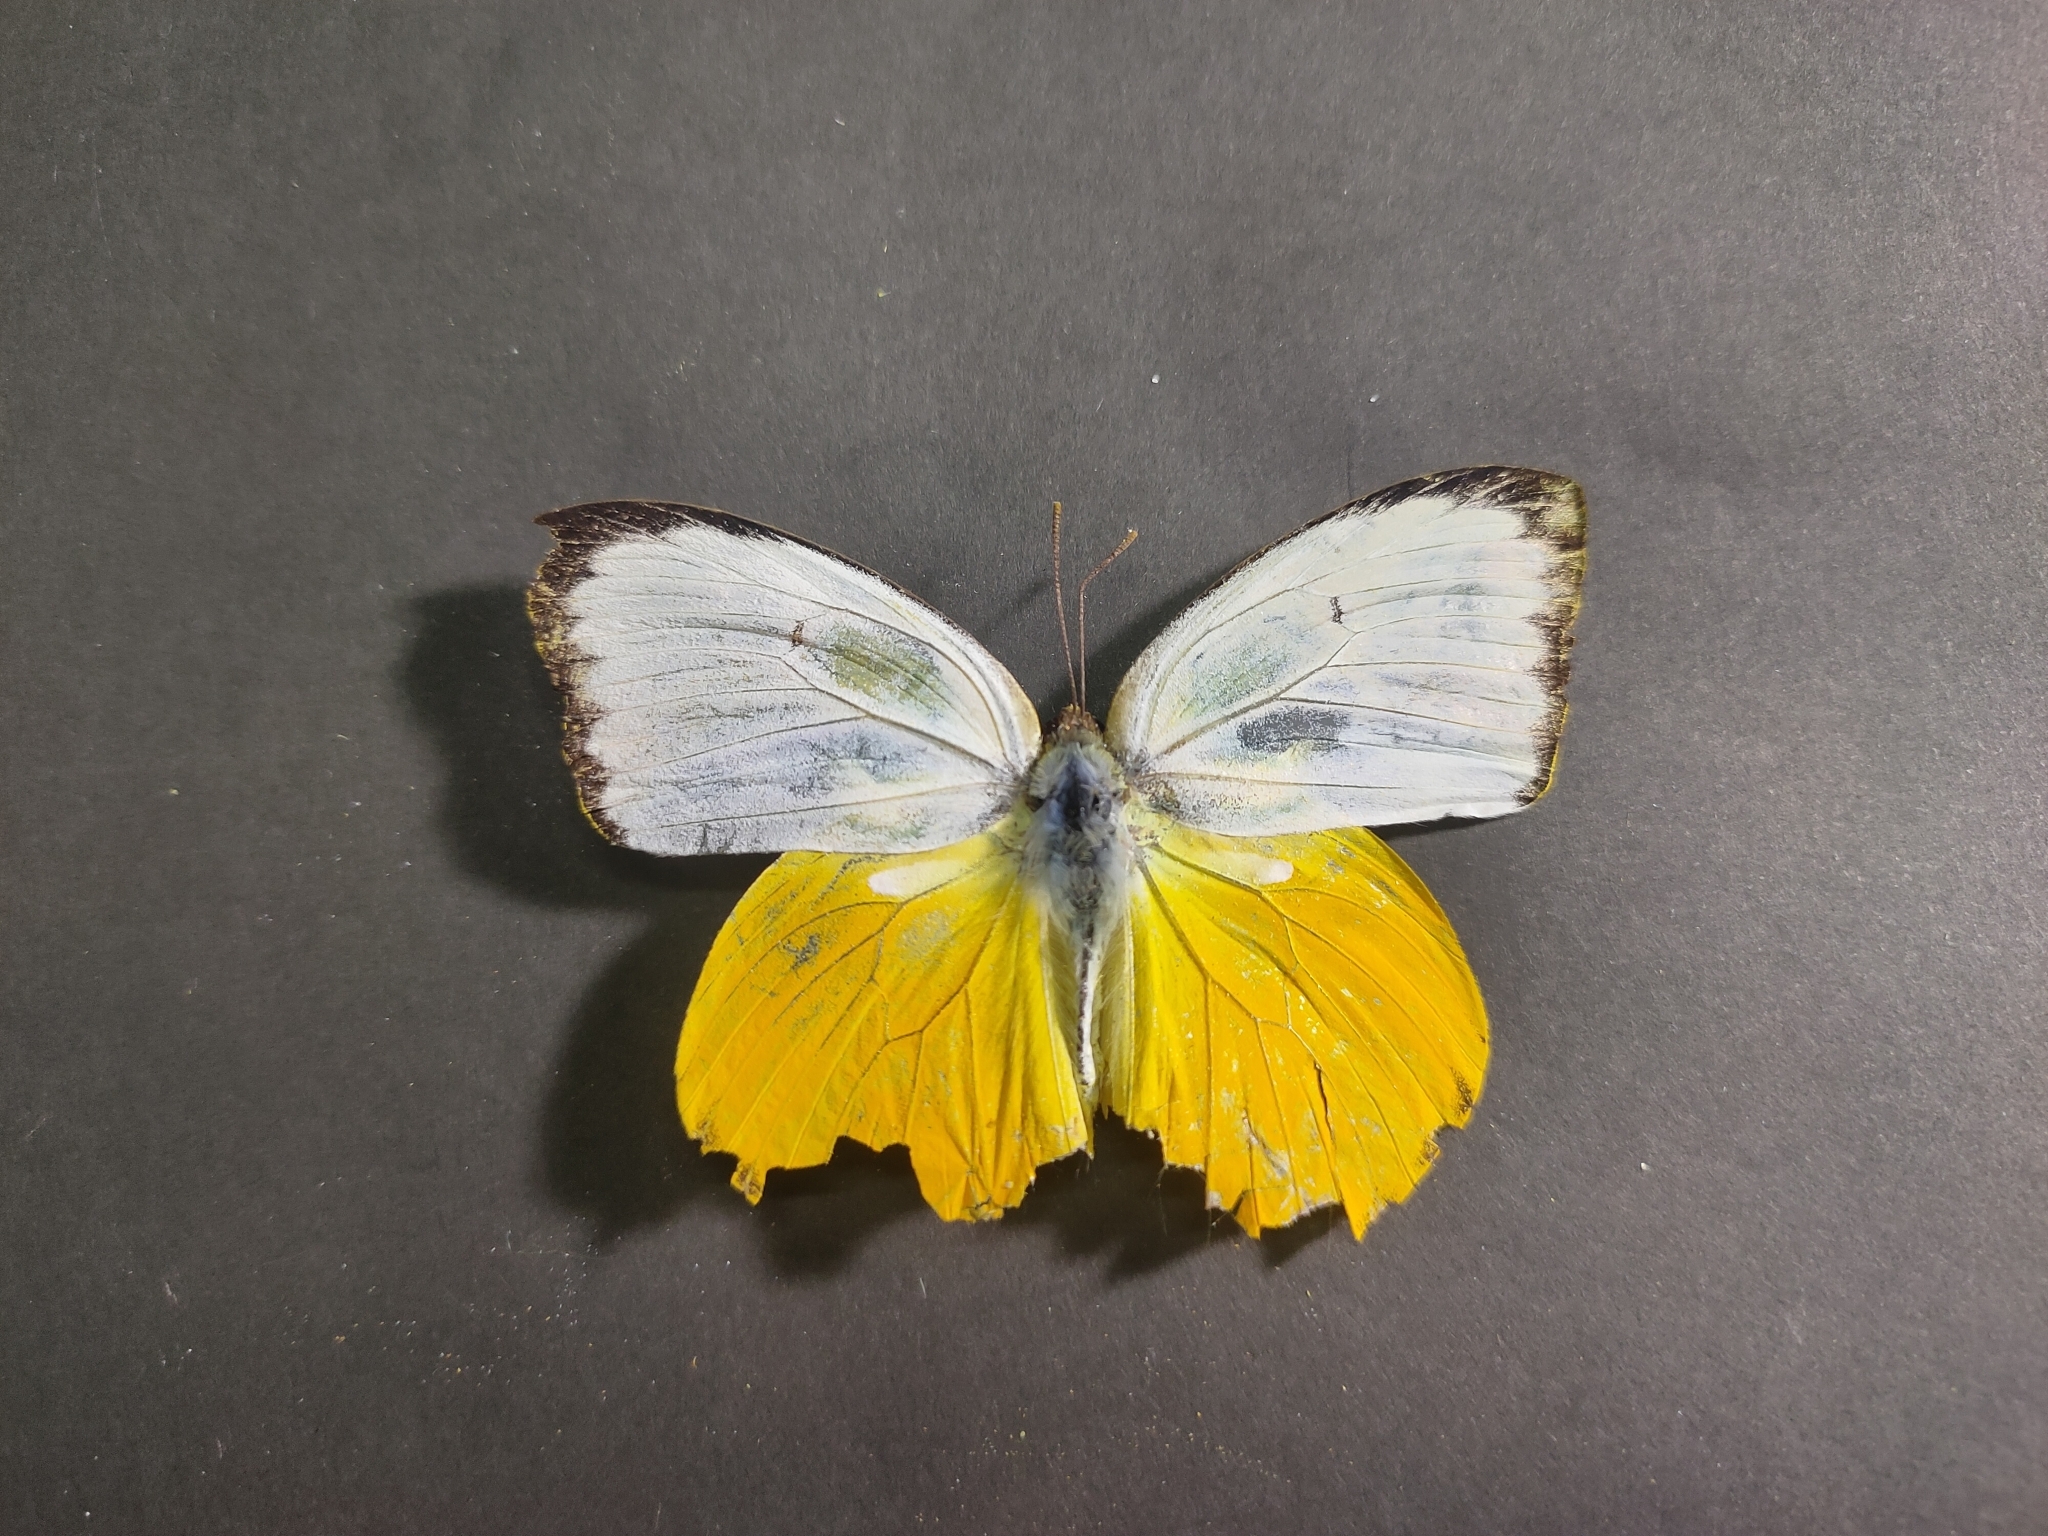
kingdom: Animalia
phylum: Arthropoda
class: Insecta
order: Lepidoptera
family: Pieridae
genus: Catopsilia
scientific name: Catopsilia scylla
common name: Orange emigrant
